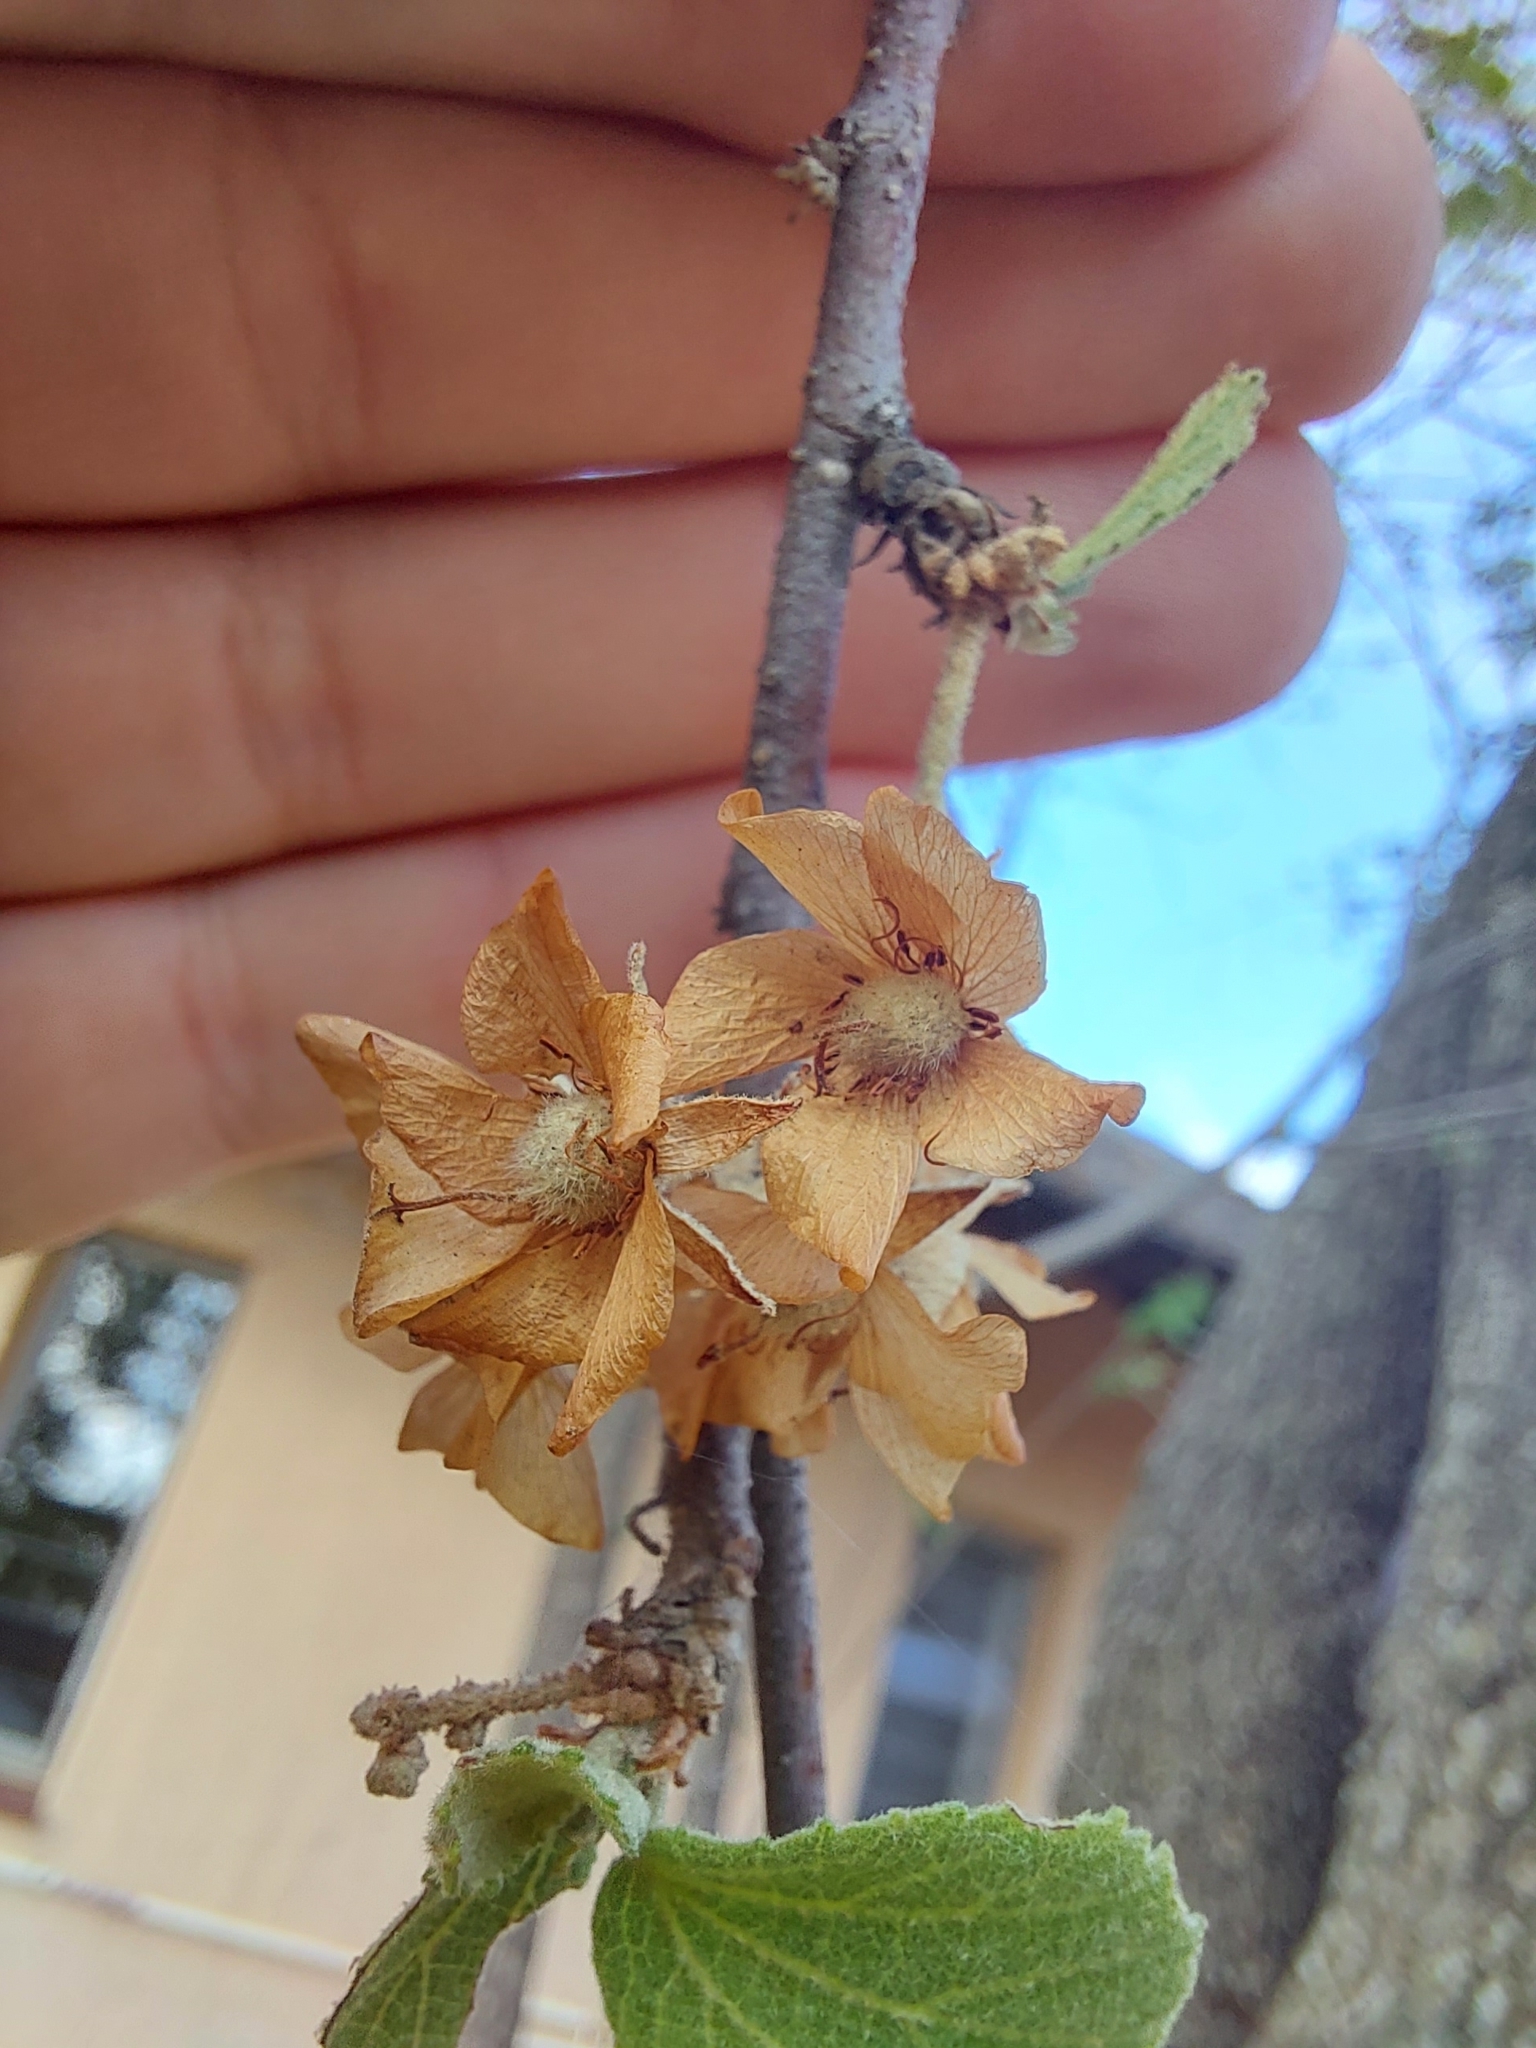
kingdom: Plantae
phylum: Tracheophyta
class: Magnoliopsida
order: Malvales
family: Malvaceae
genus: Dombeya
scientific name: Dombeya rotundifolia
